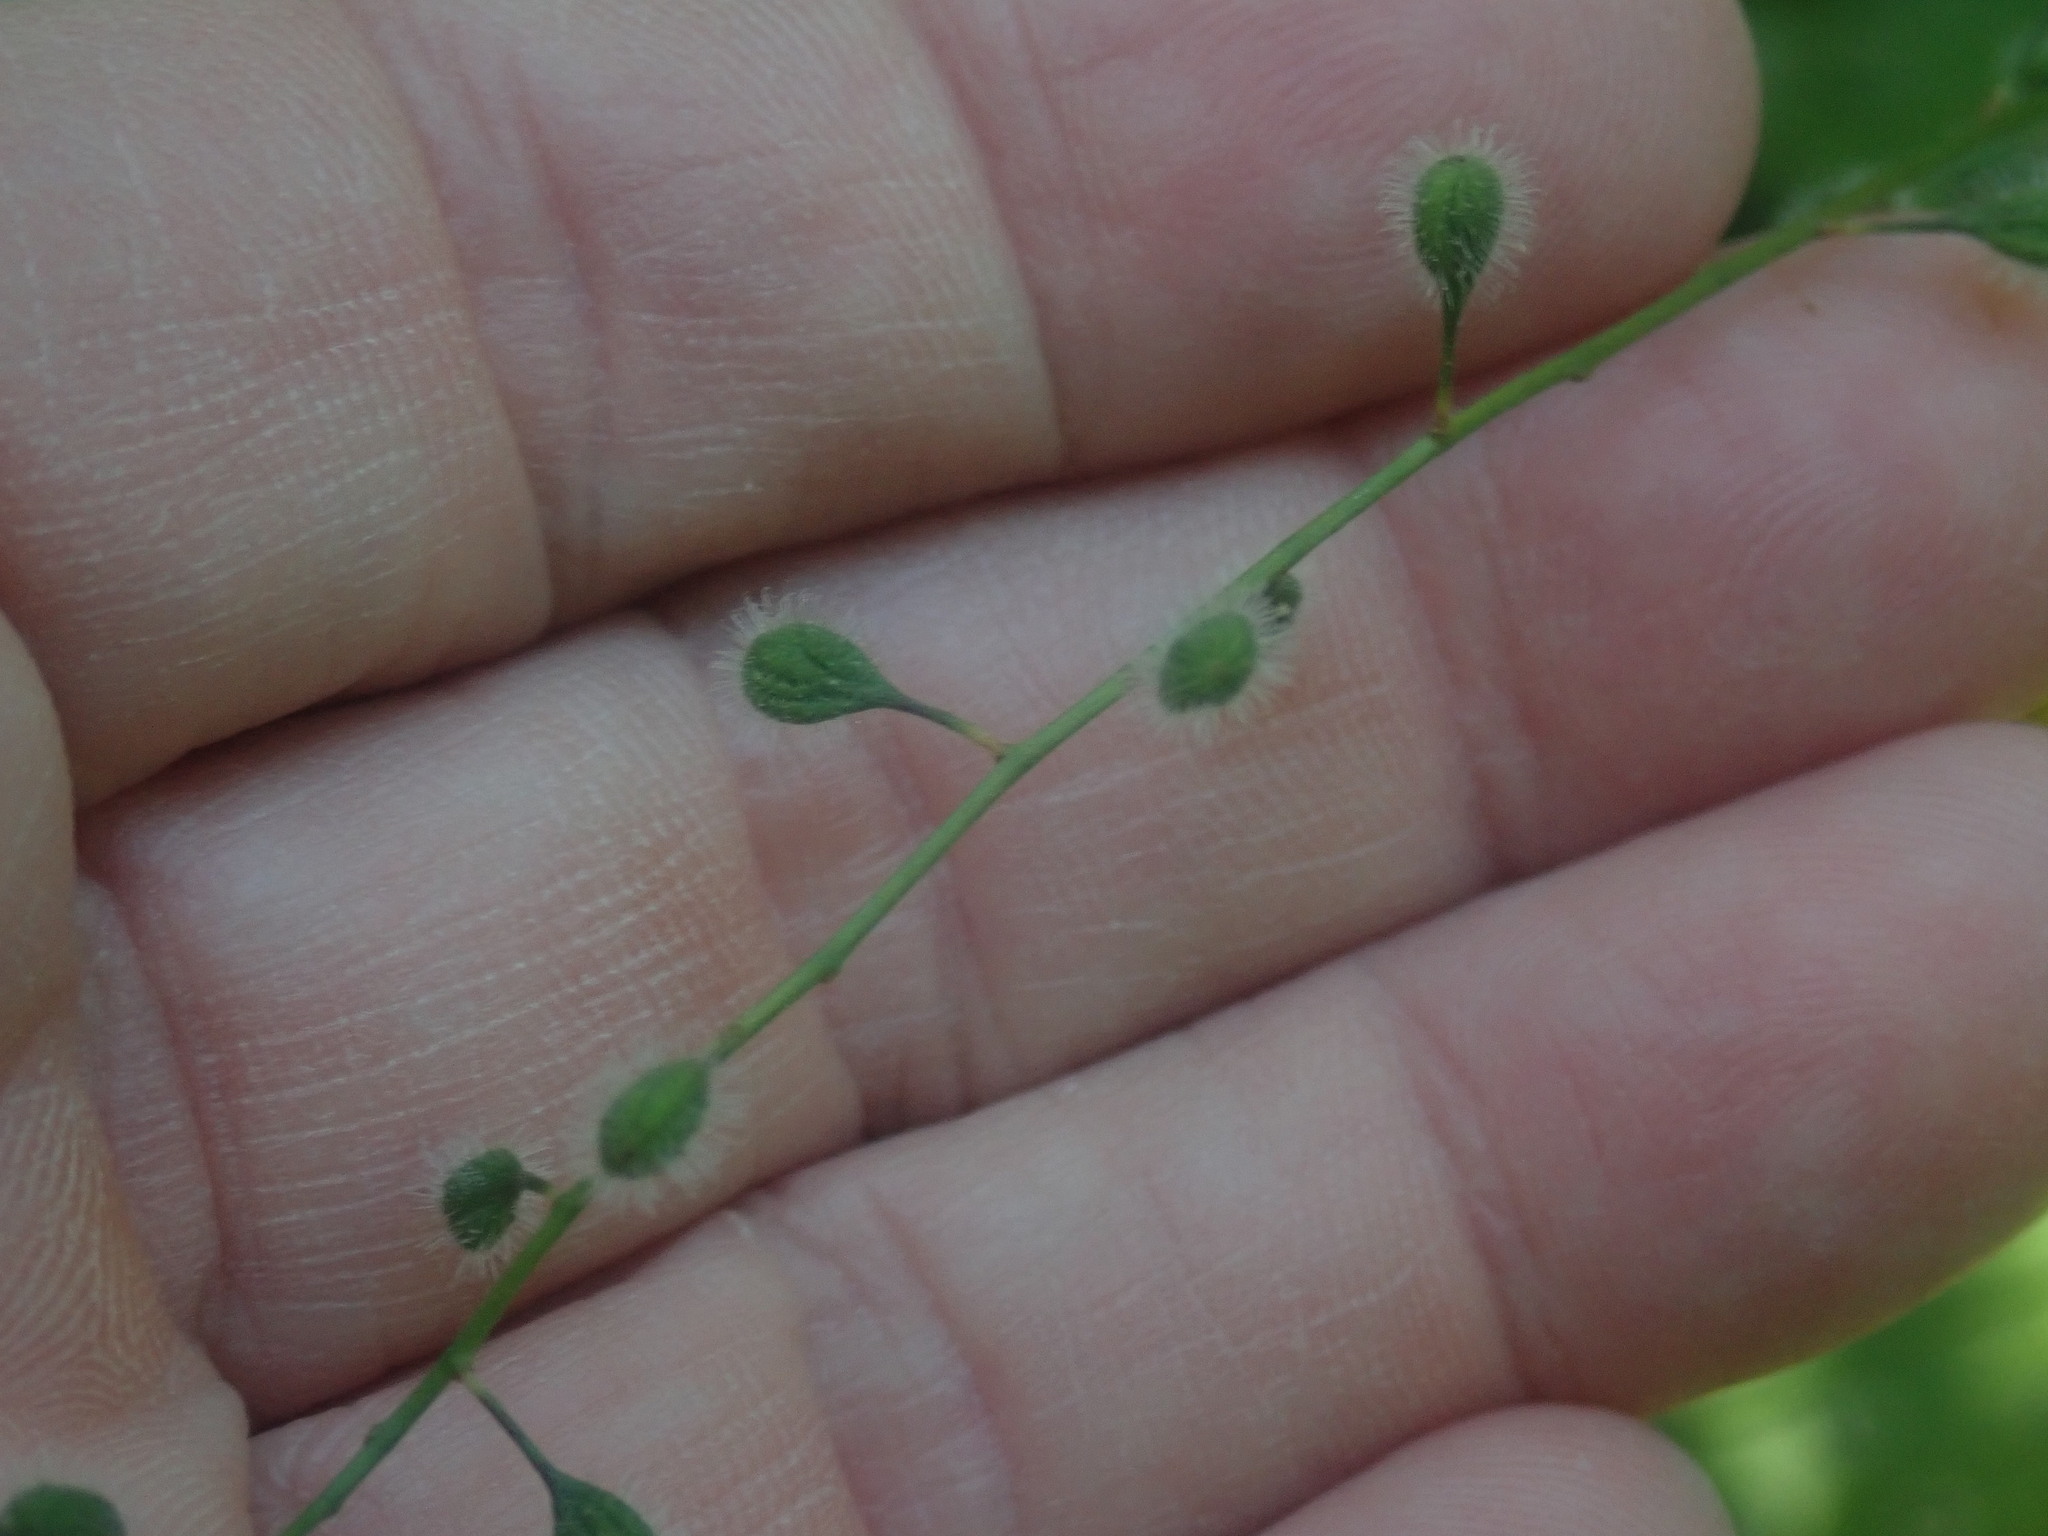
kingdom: Plantae
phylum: Tracheophyta
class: Magnoliopsida
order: Myrtales
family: Onagraceae
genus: Circaea
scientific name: Circaea canadensis
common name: Broad-leaved enchanter's nightshade
